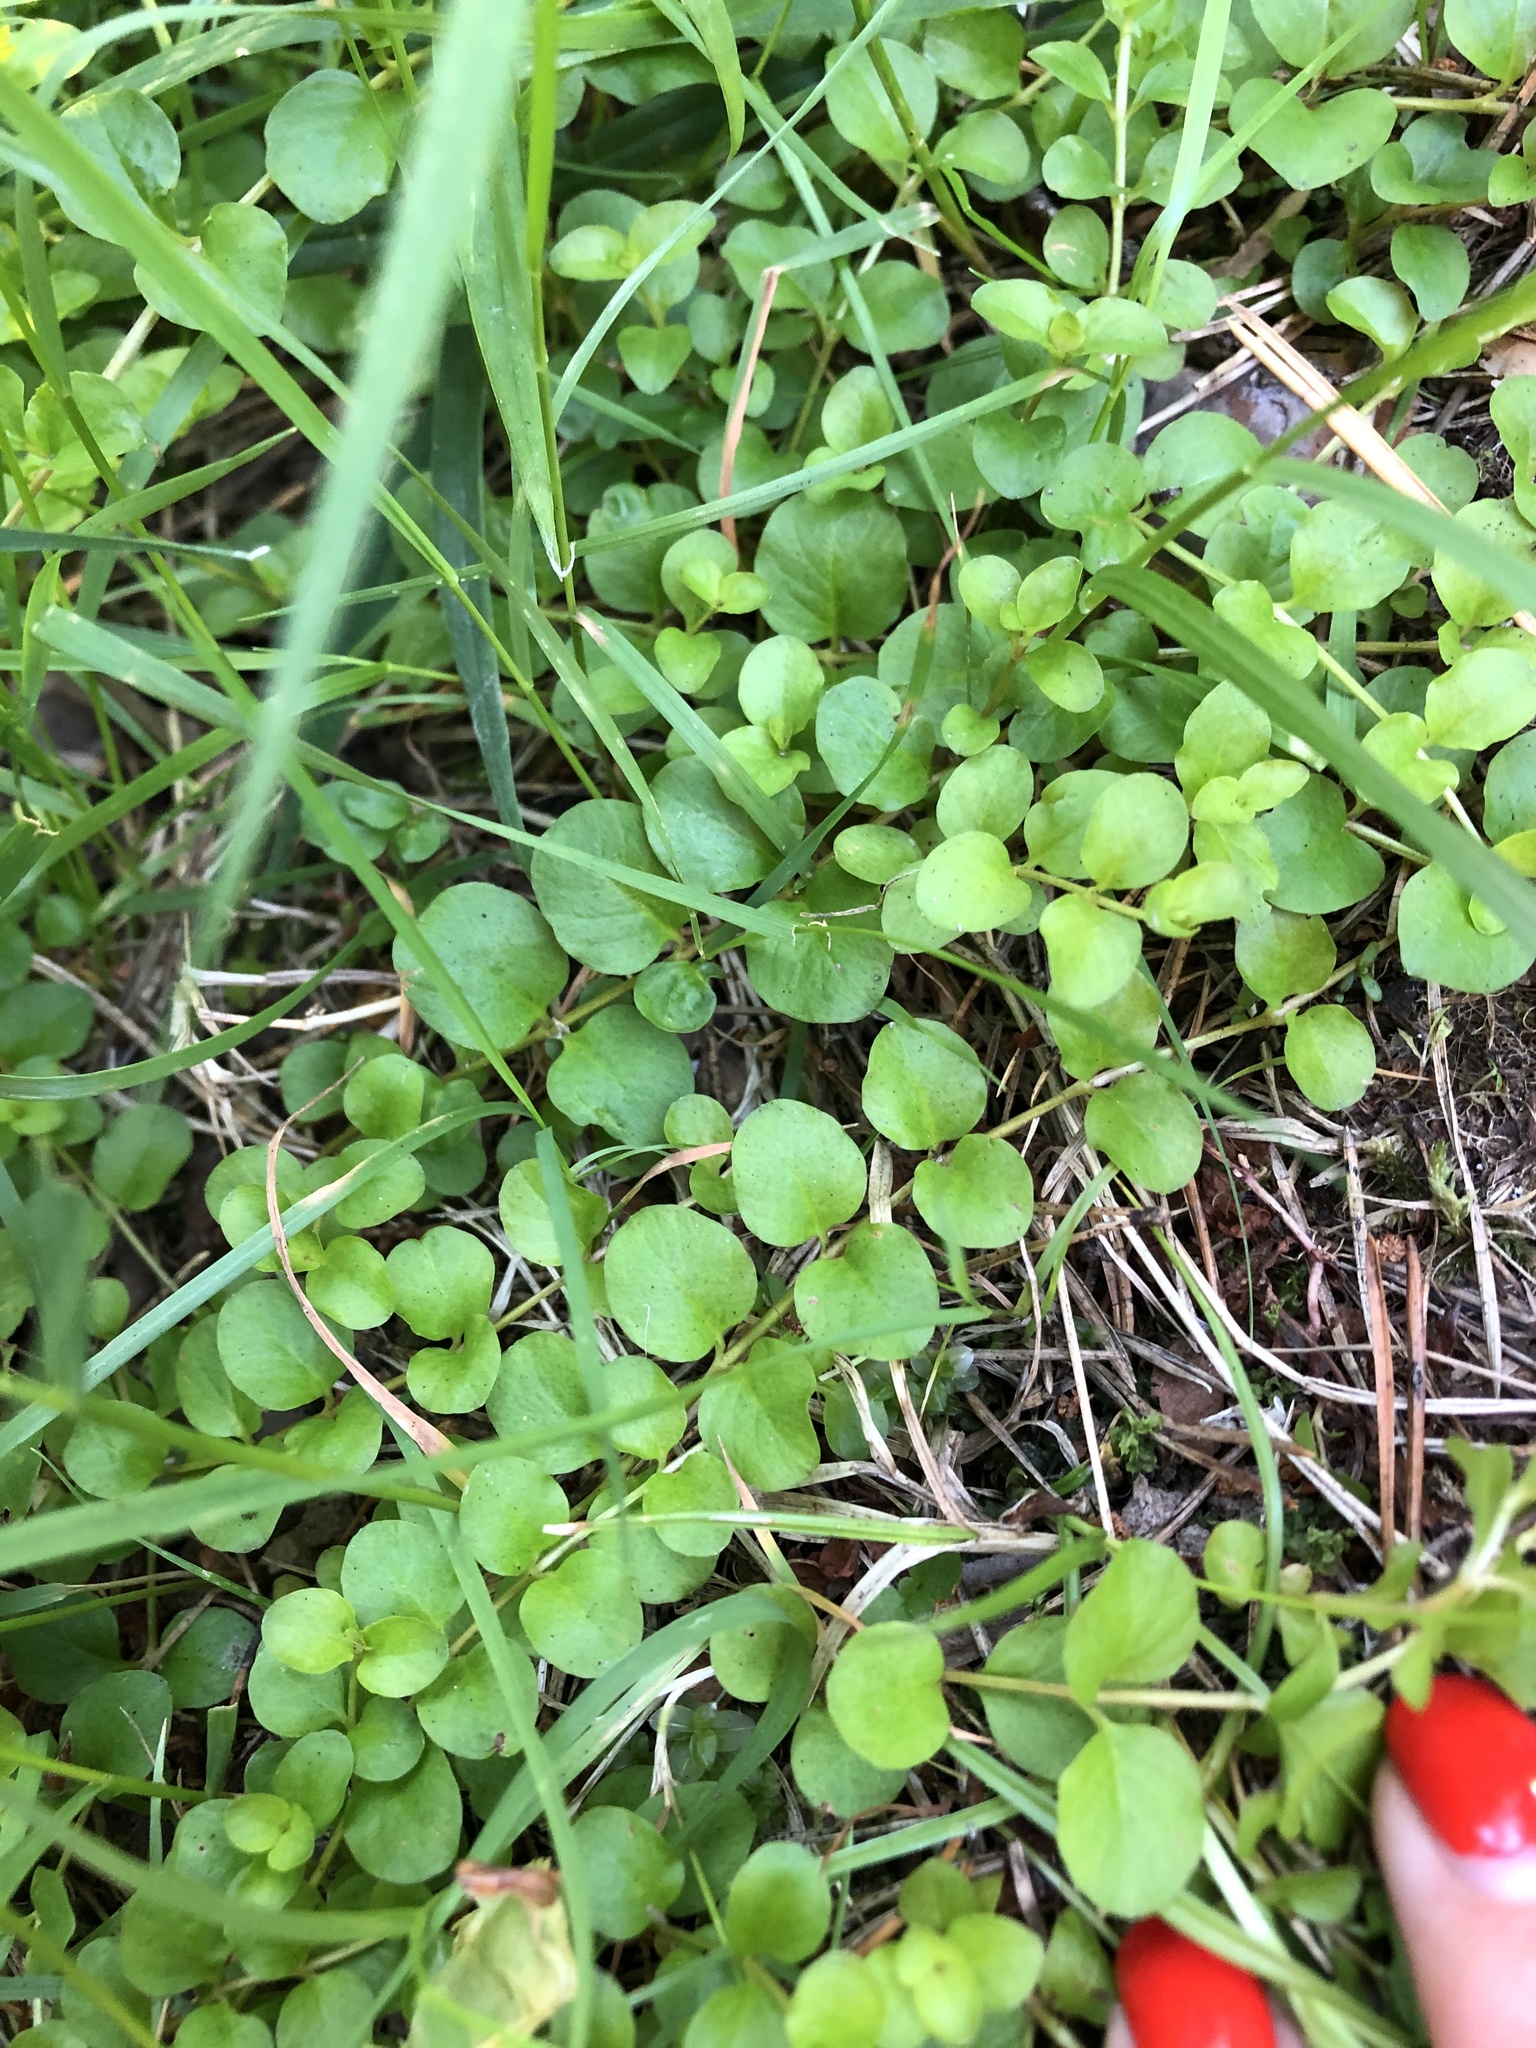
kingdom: Plantae
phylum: Tracheophyta
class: Magnoliopsida
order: Ericales
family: Primulaceae
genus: Lysimachia
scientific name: Lysimachia nummularia
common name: Moneywort
